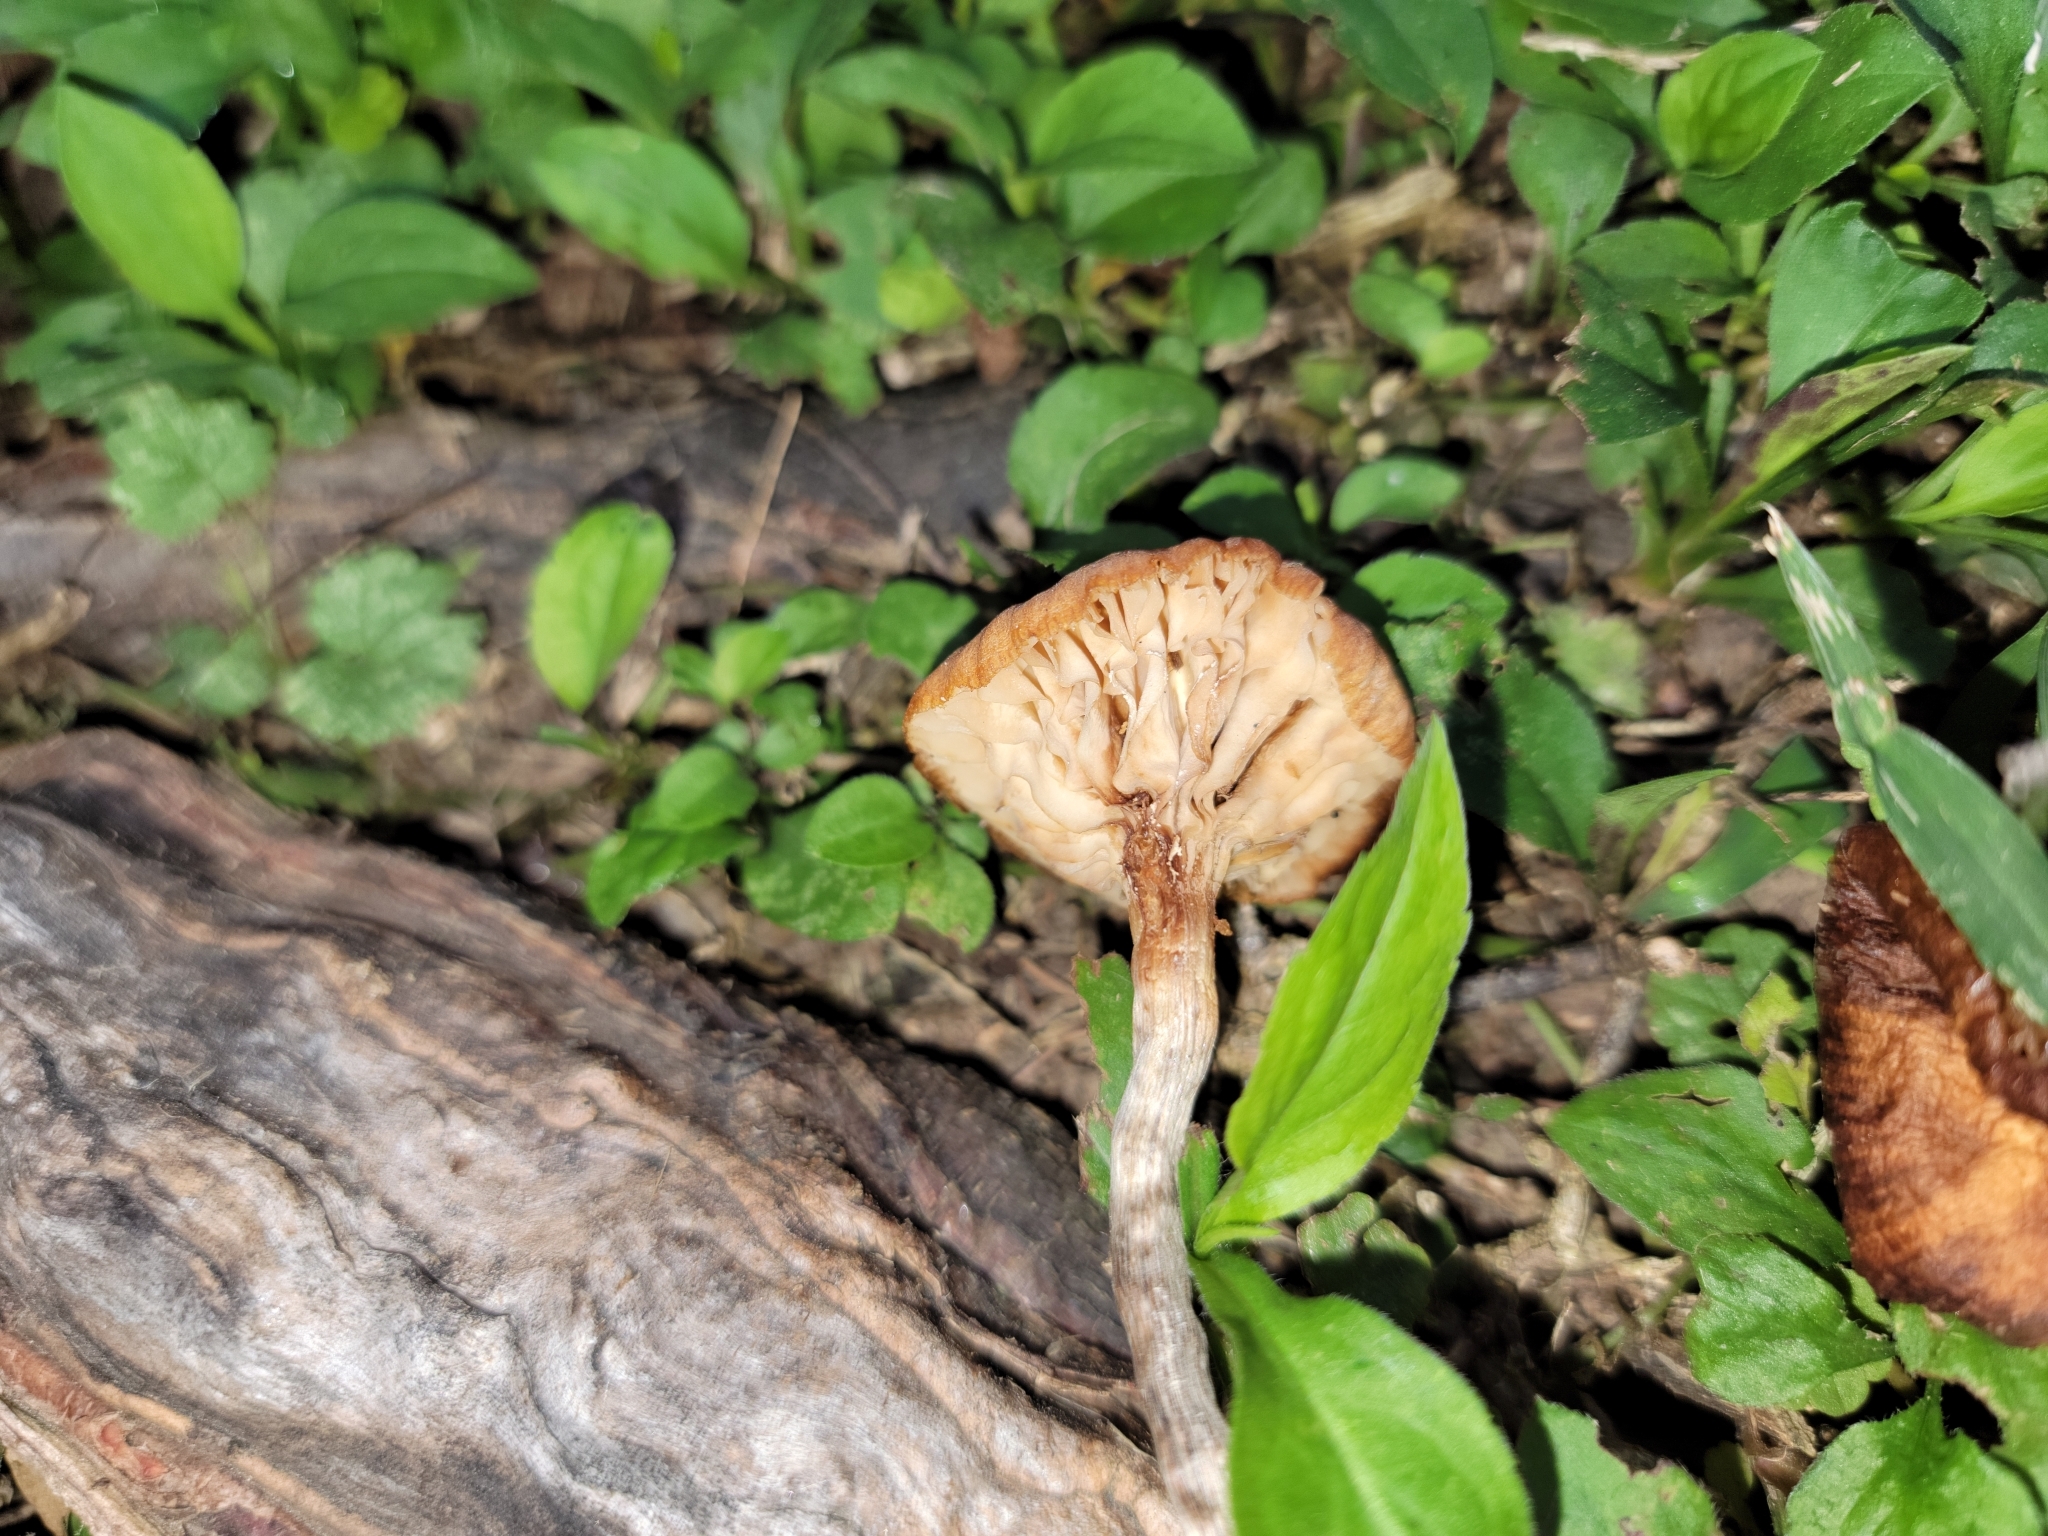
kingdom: Fungi
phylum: Basidiomycota
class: Agaricomycetes
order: Agaricales
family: Physalacriaceae
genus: Desarmillaria
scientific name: Desarmillaria caespitosa
